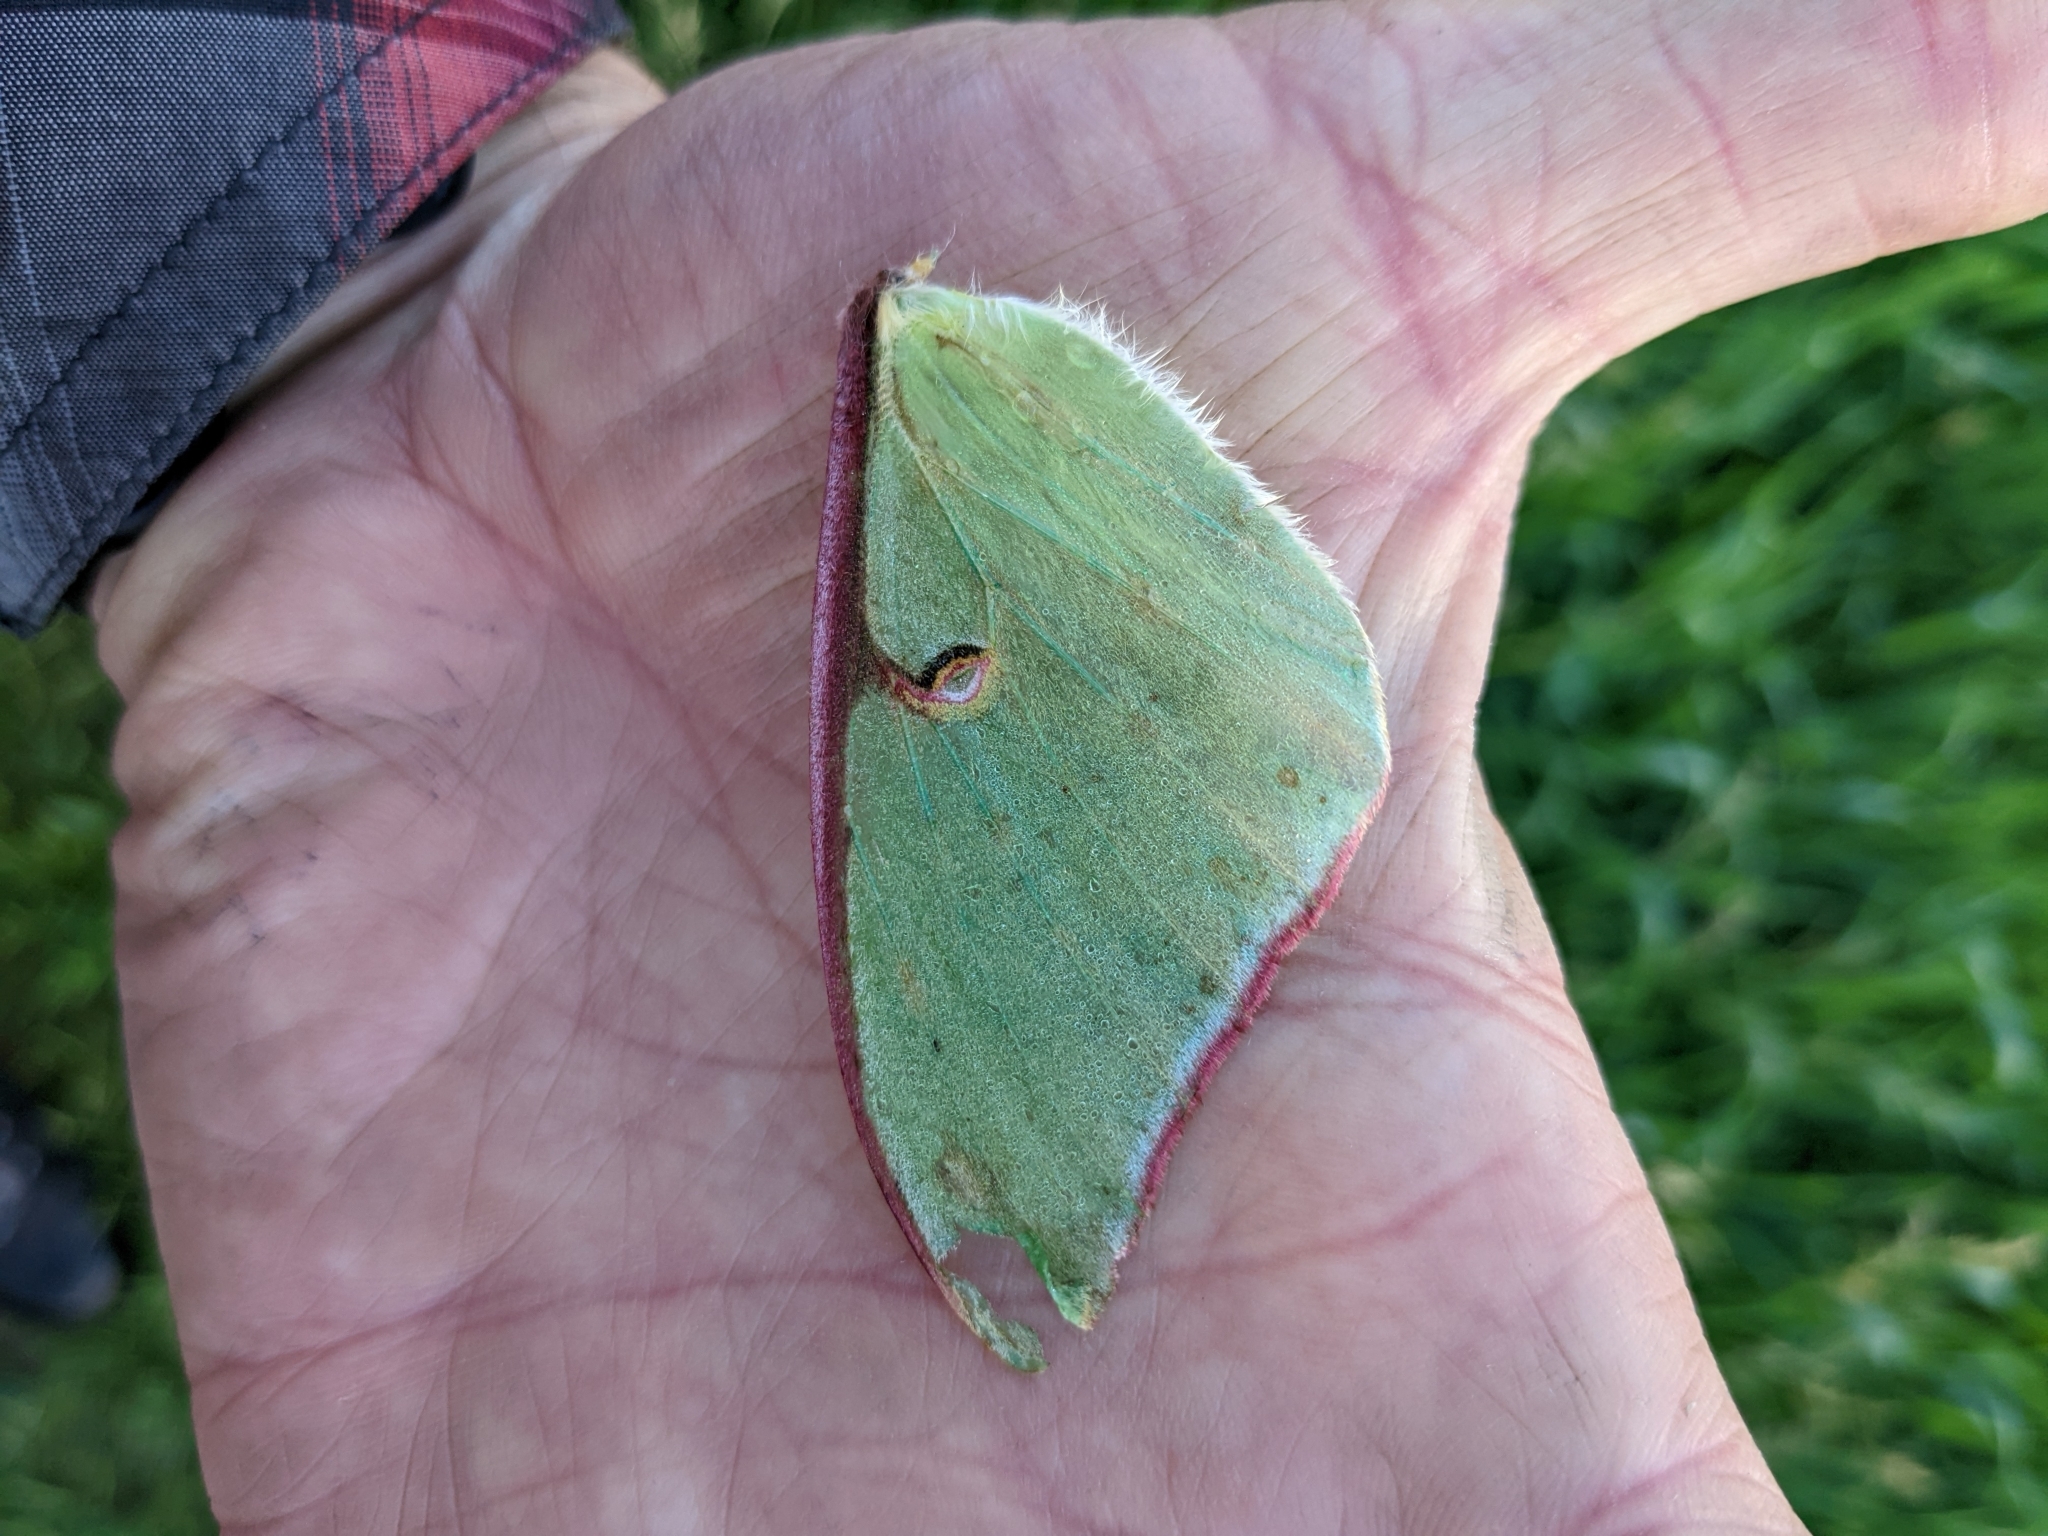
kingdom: Animalia
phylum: Arthropoda
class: Insecta
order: Lepidoptera
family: Saturniidae
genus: Actias
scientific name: Actias luna
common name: Luna moth
